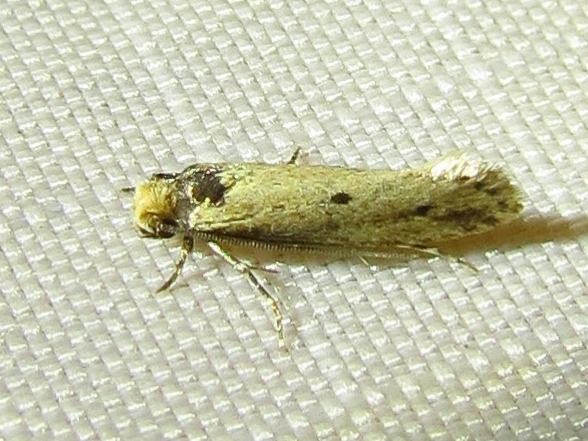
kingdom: Animalia
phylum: Arthropoda
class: Insecta
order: Lepidoptera
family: Tineidae
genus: Tinea
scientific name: Tinea apicimaculella
